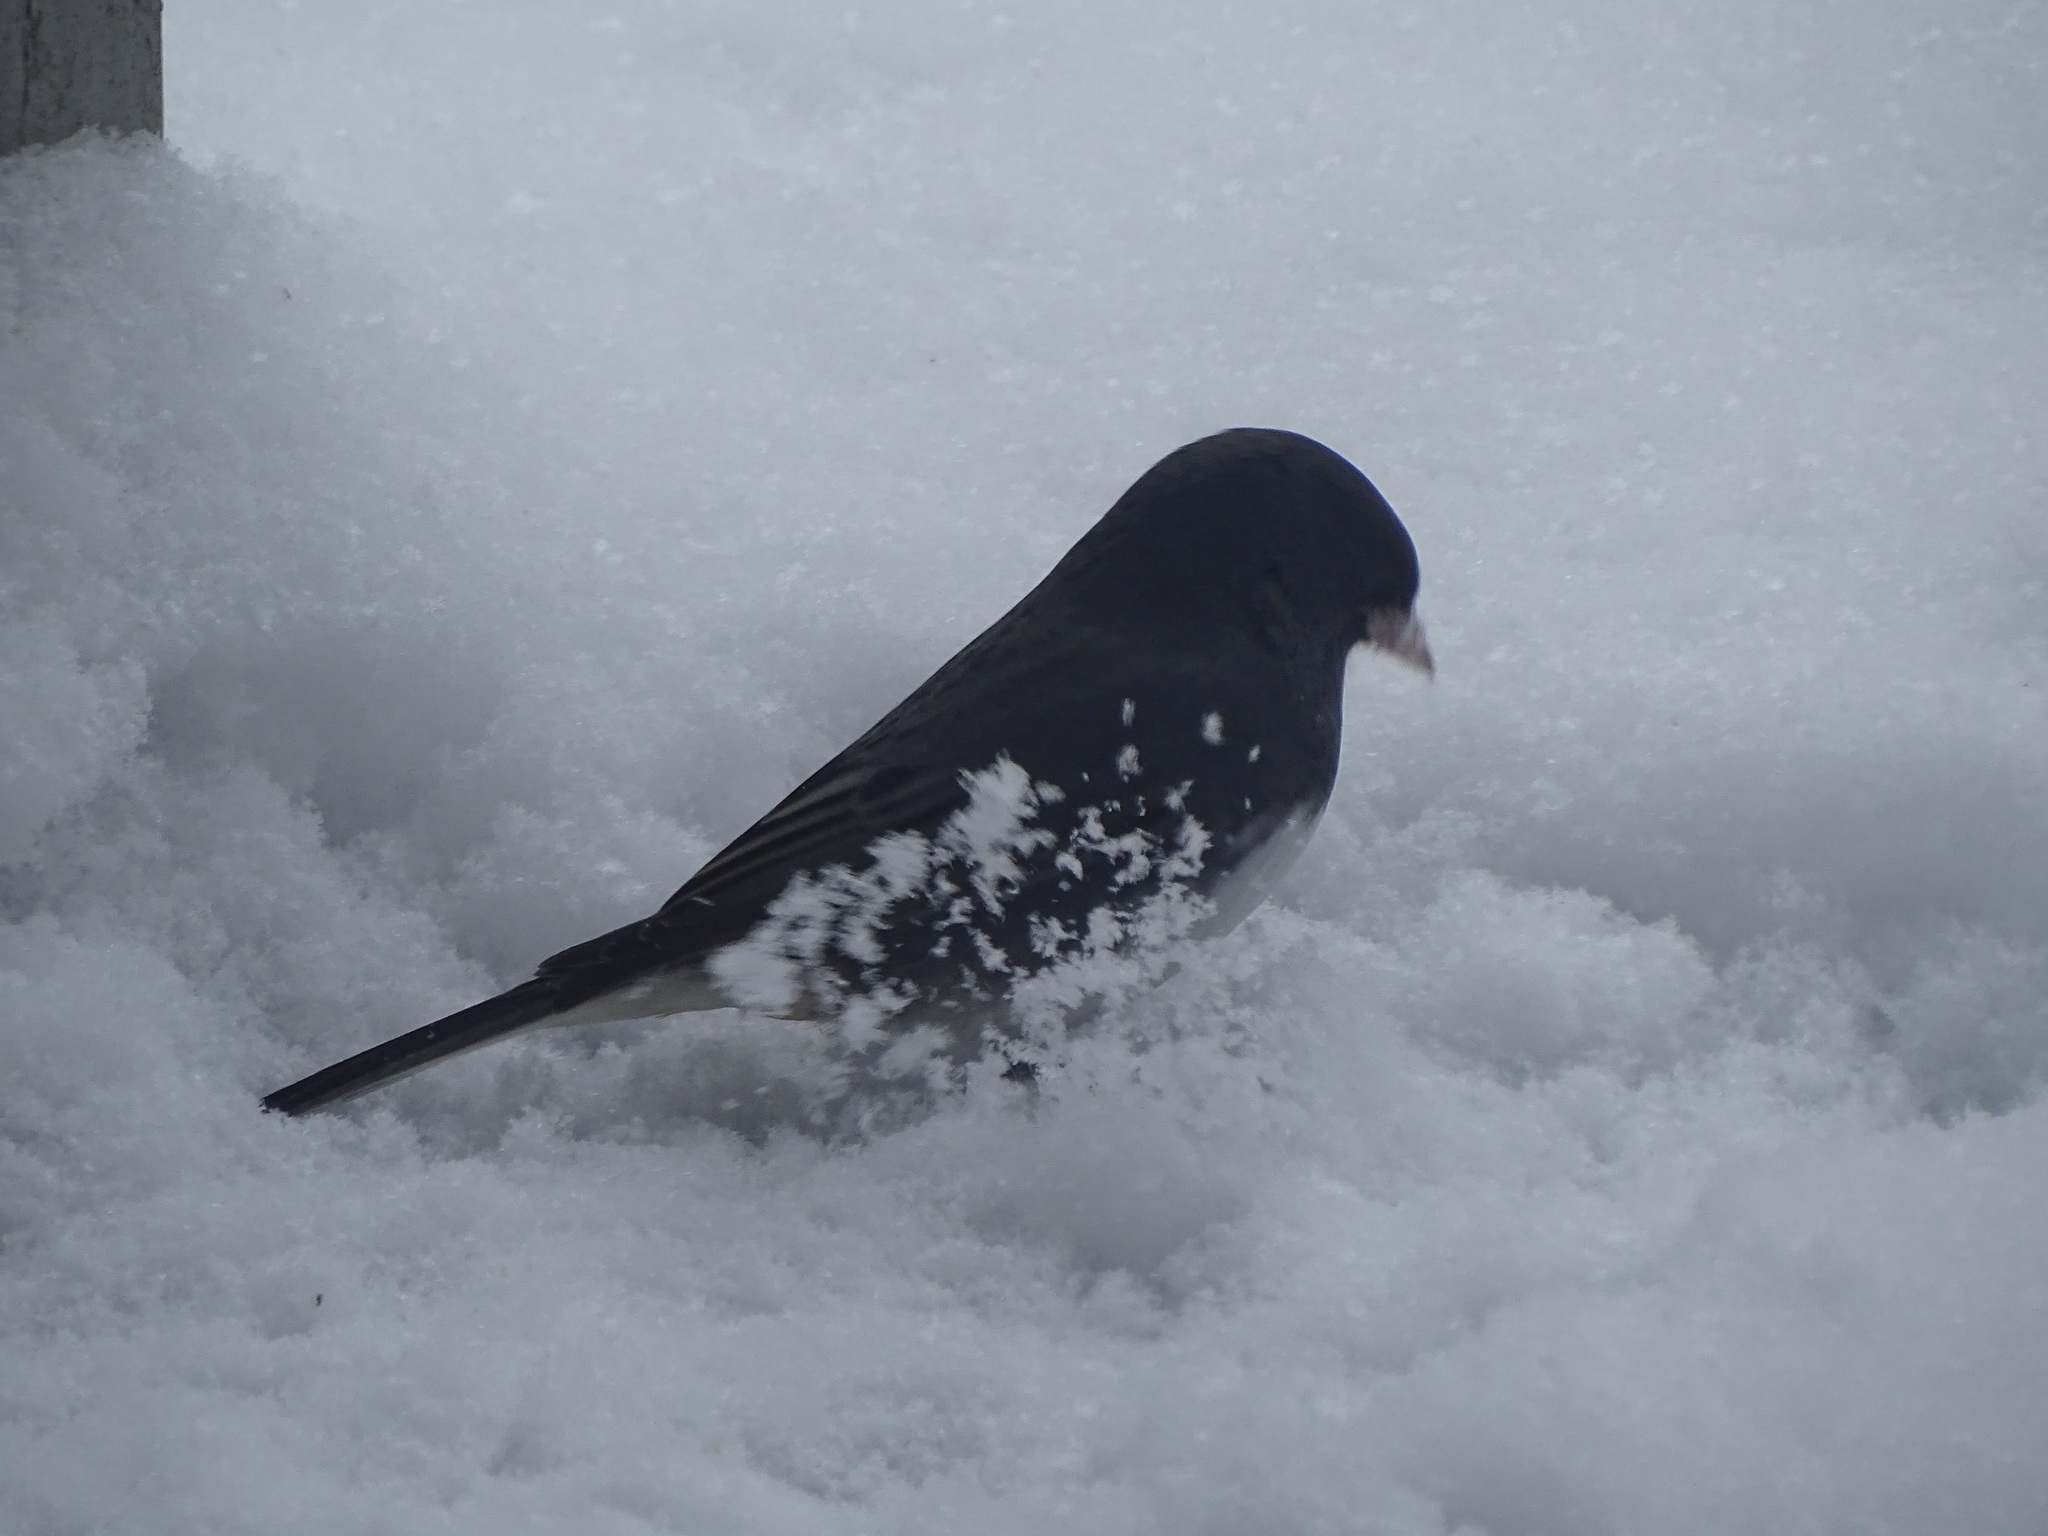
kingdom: Animalia
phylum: Chordata
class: Aves
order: Passeriformes
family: Passerellidae
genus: Junco
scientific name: Junco hyemalis
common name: Dark-eyed junco
